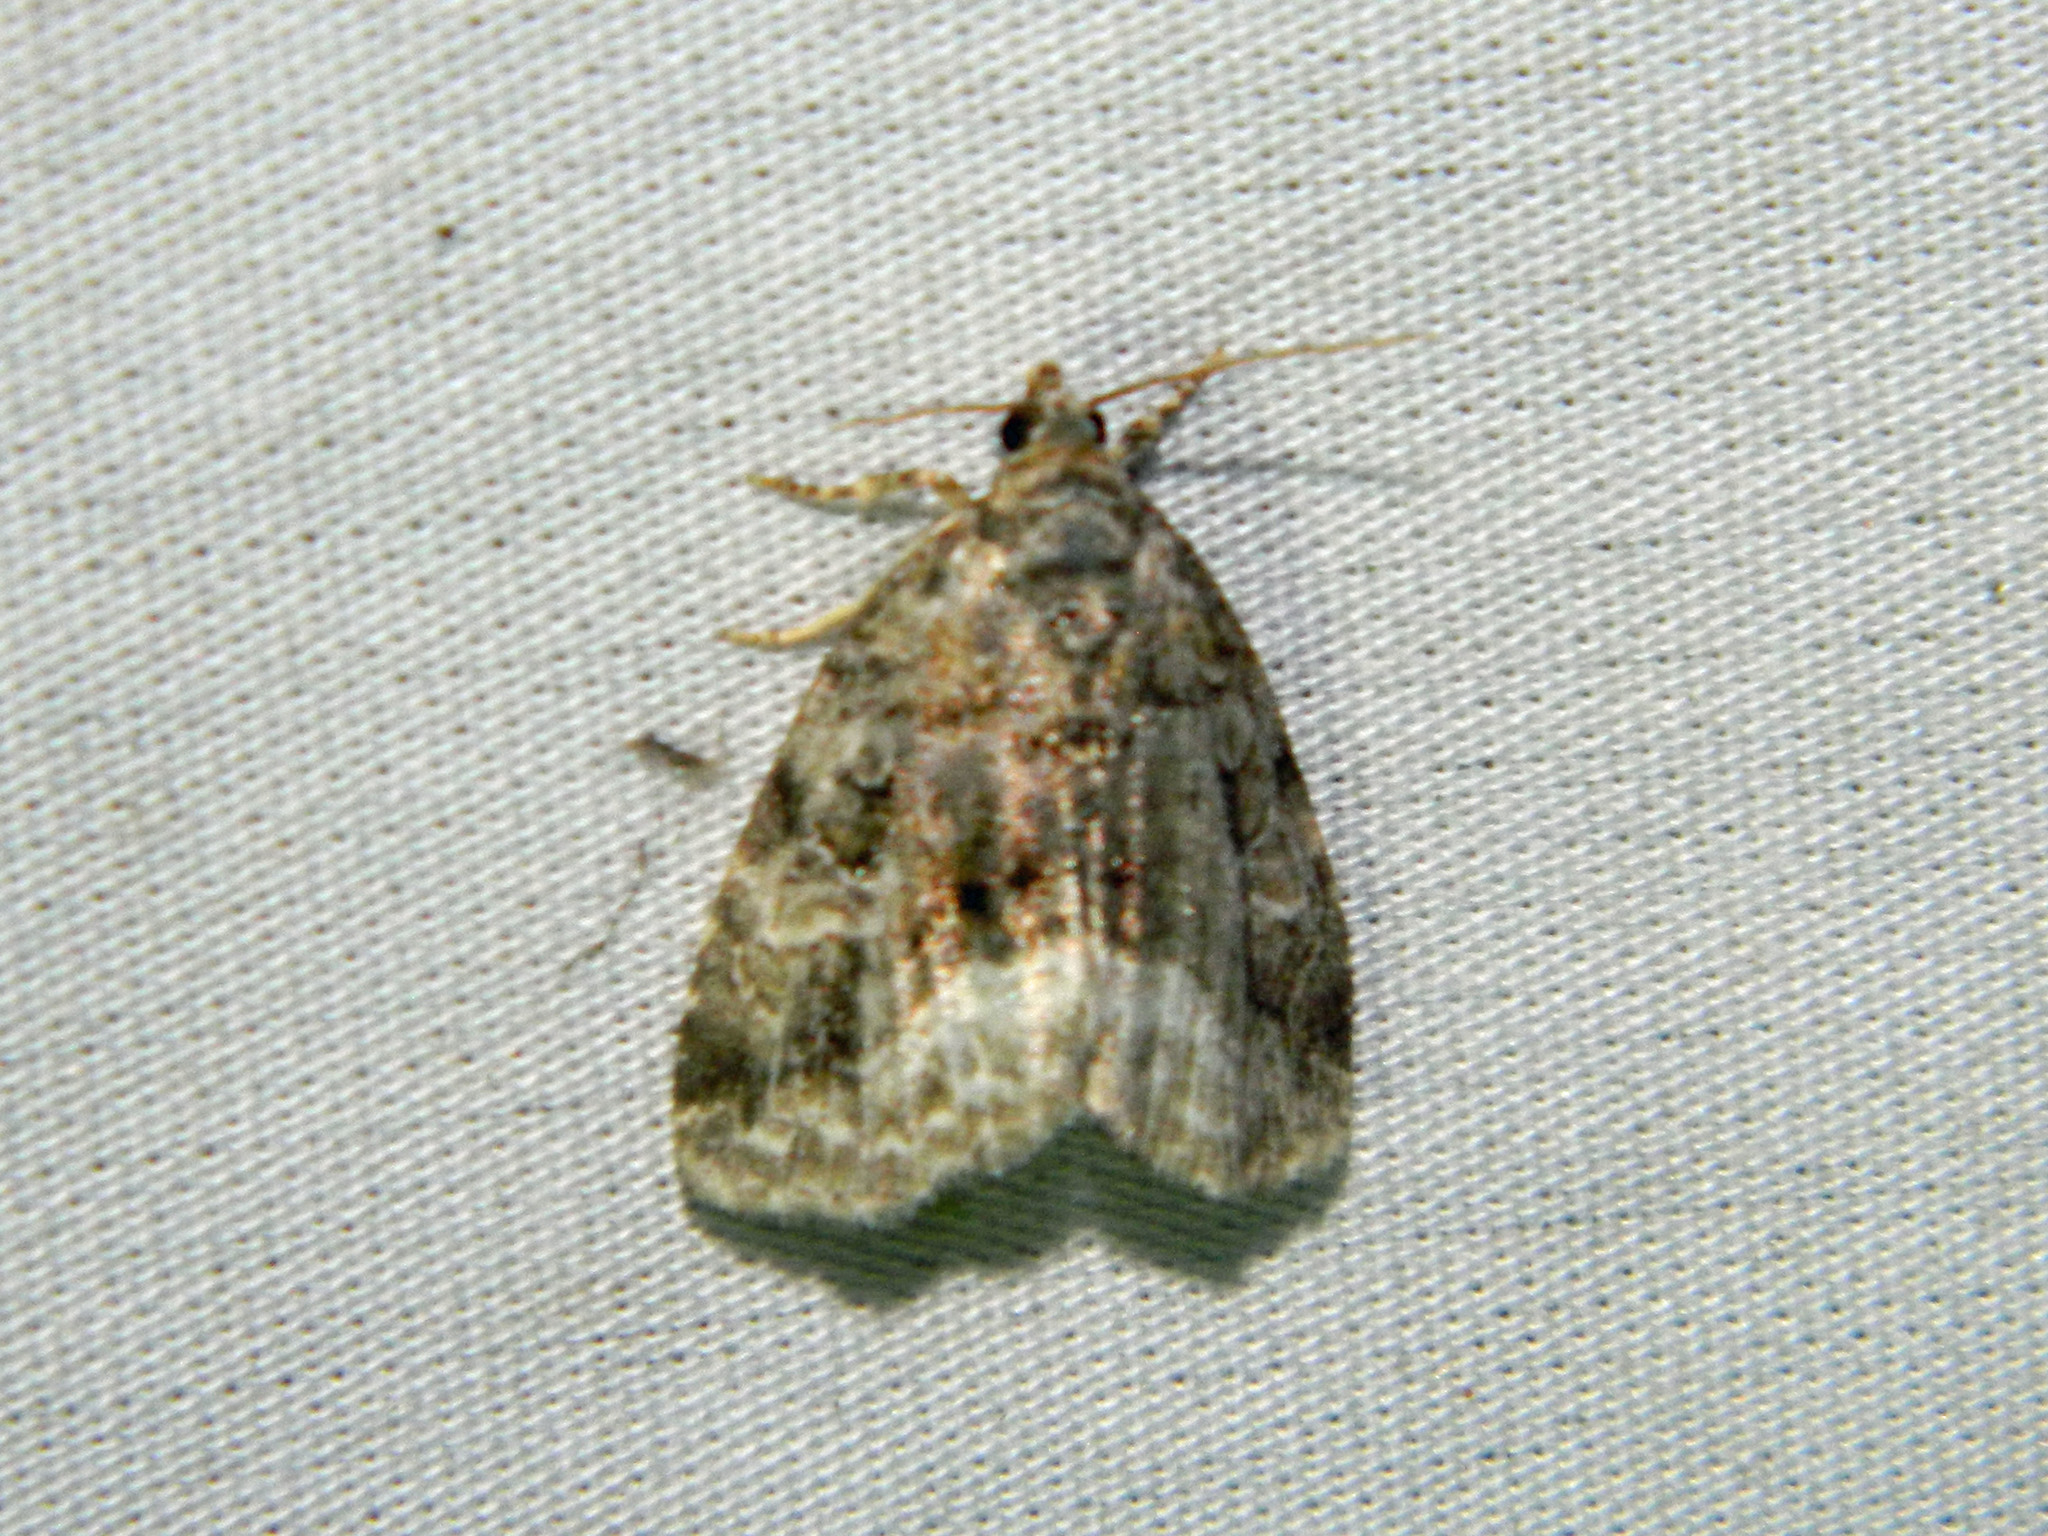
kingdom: Animalia
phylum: Arthropoda
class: Insecta
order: Lepidoptera
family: Noctuidae
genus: Protodeltote
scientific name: Protodeltote muscosula
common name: Large mossy glyph
